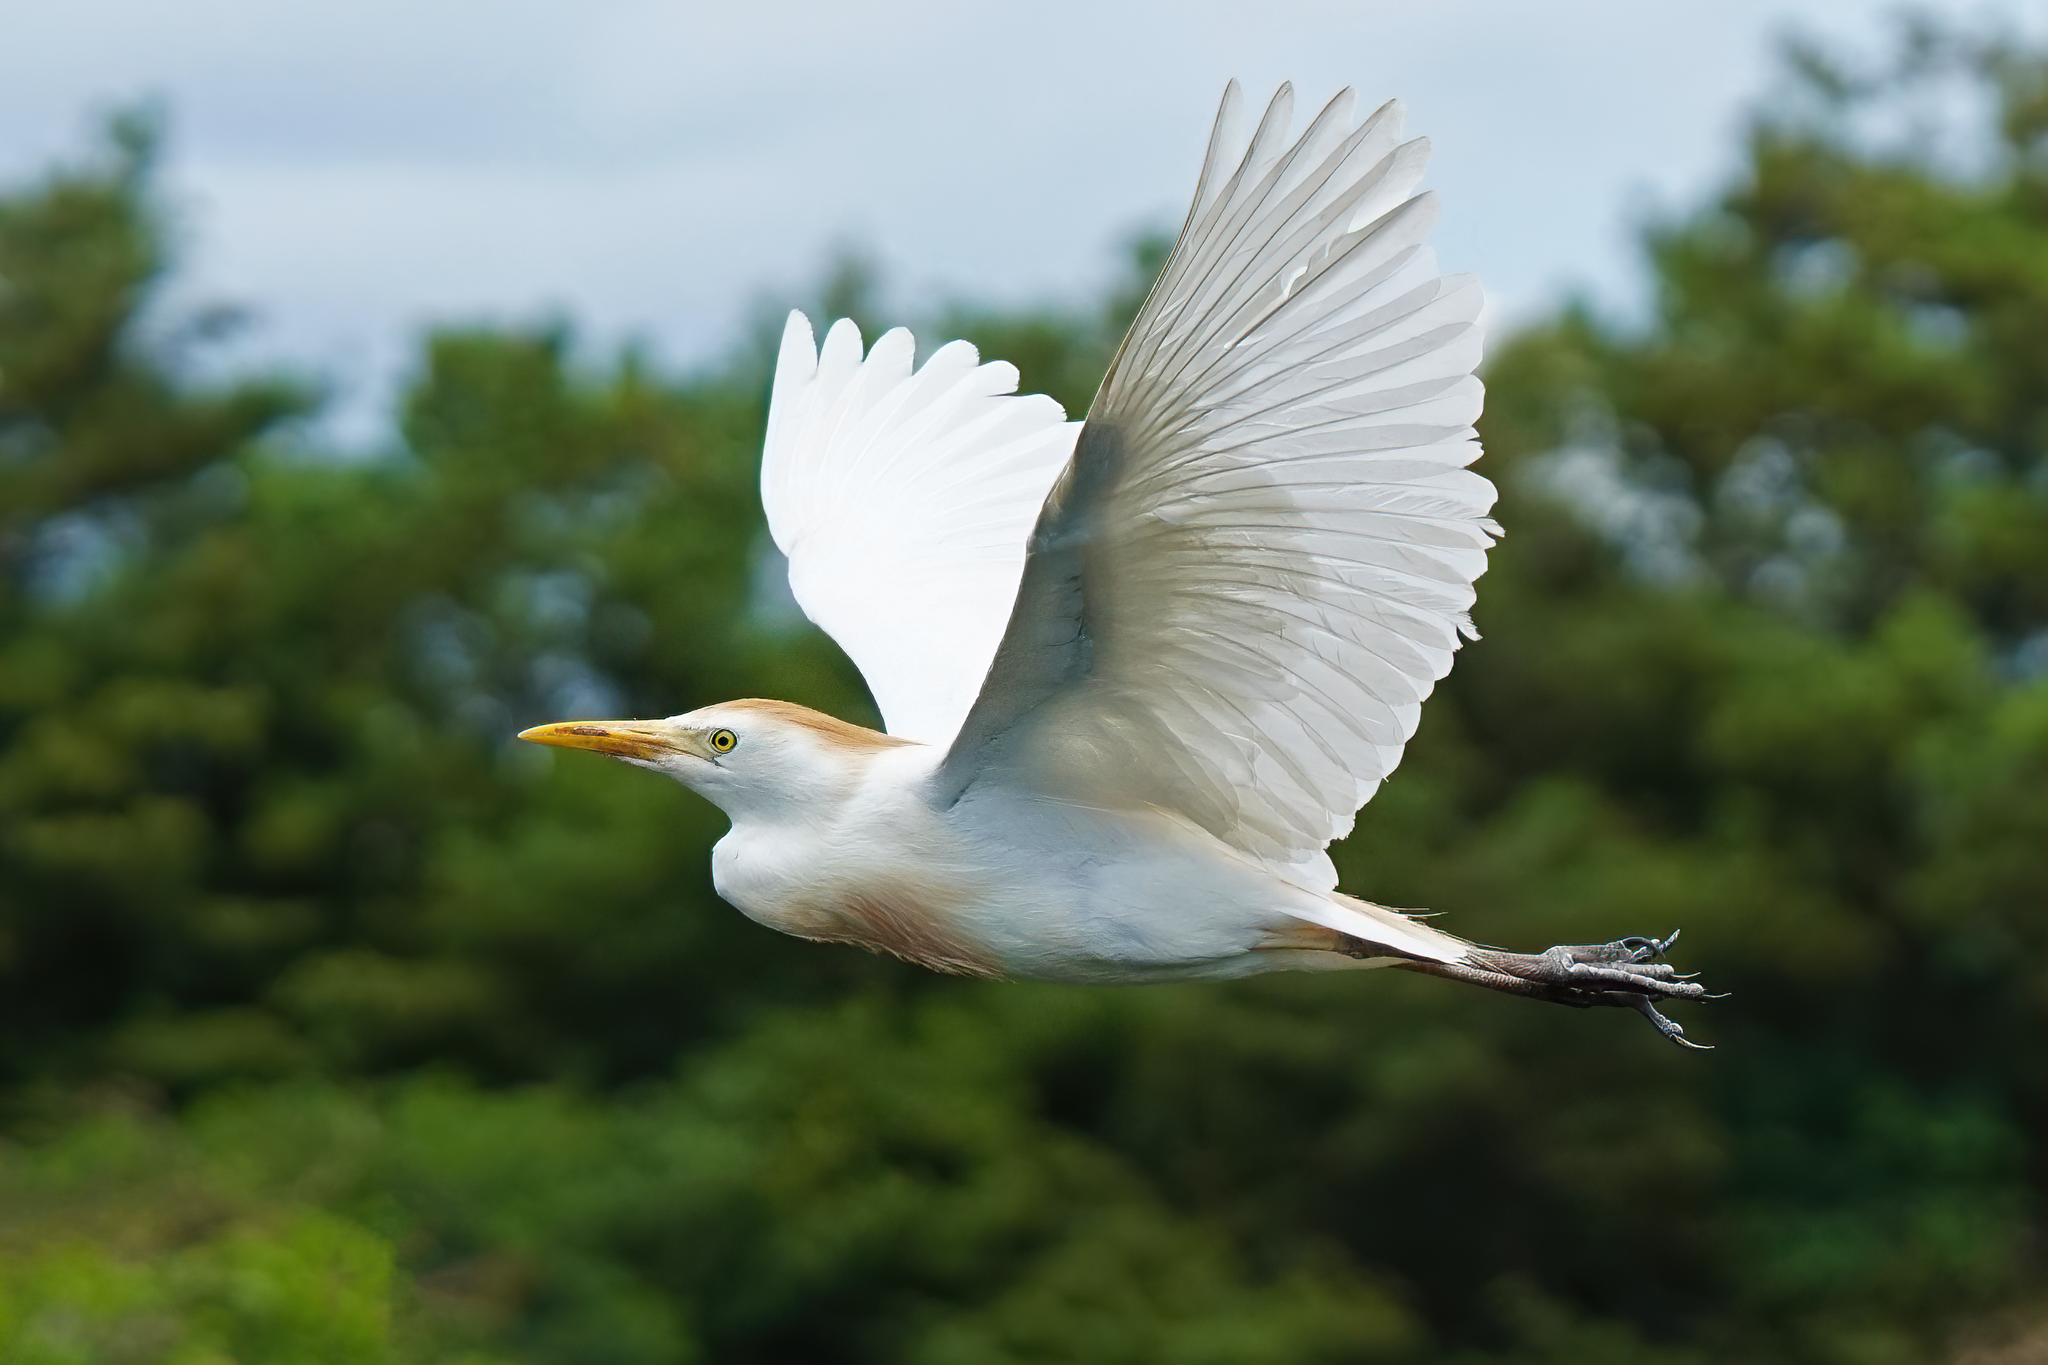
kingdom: Animalia
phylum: Chordata
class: Aves
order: Pelecaniformes
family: Ardeidae
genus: Bubulcus
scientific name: Bubulcus ibis
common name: Cattle egret
